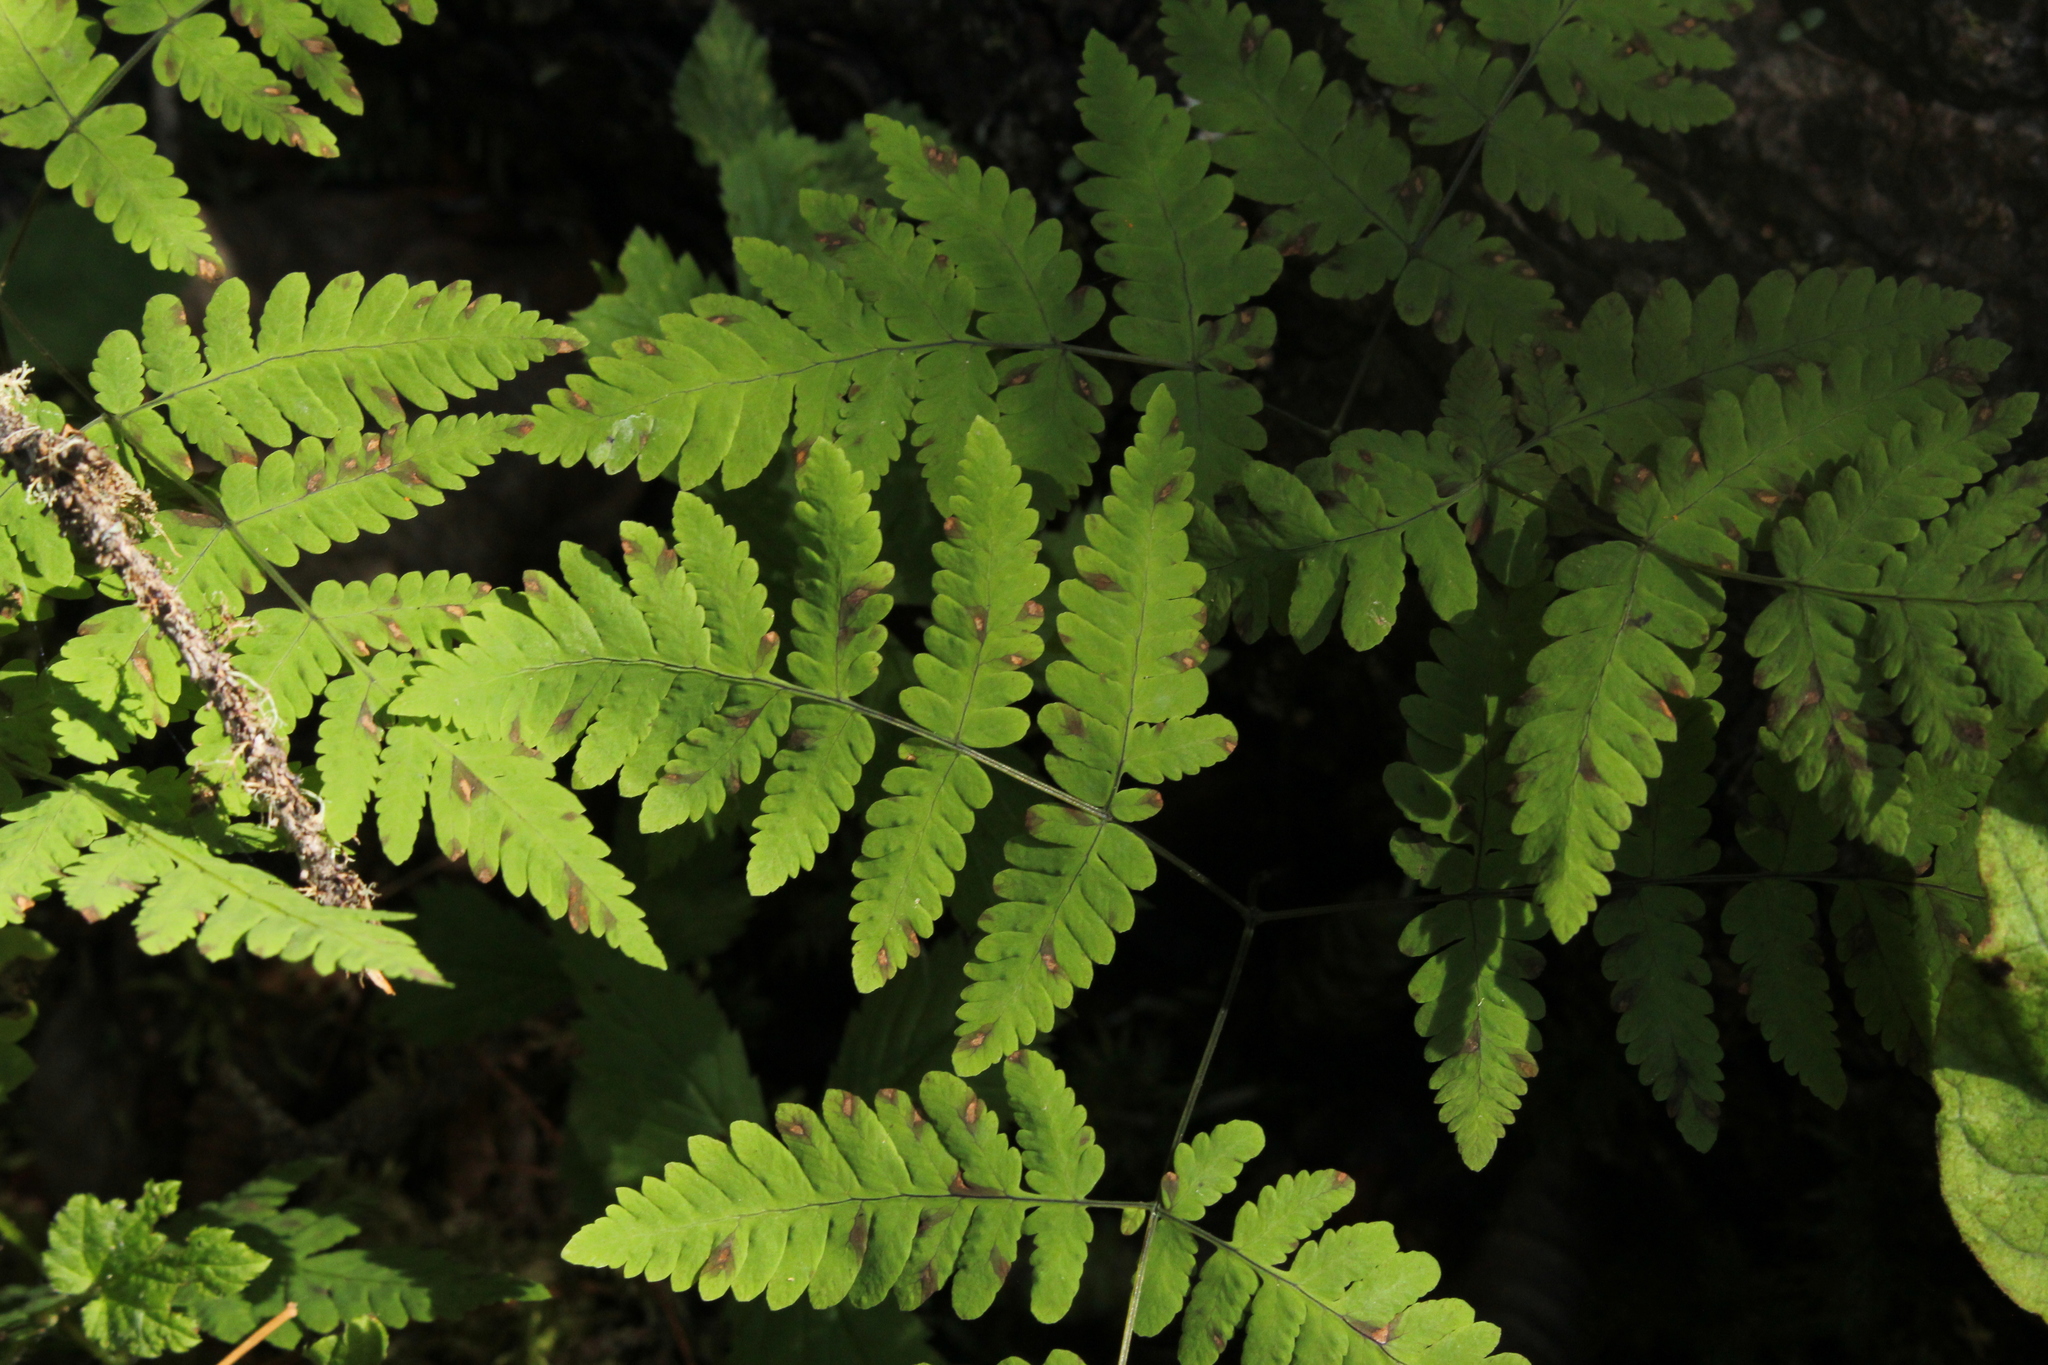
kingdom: Plantae
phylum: Tracheophyta
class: Polypodiopsida
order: Polypodiales
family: Cystopteridaceae
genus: Gymnocarpium
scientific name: Gymnocarpium dryopteris
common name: Oak fern
